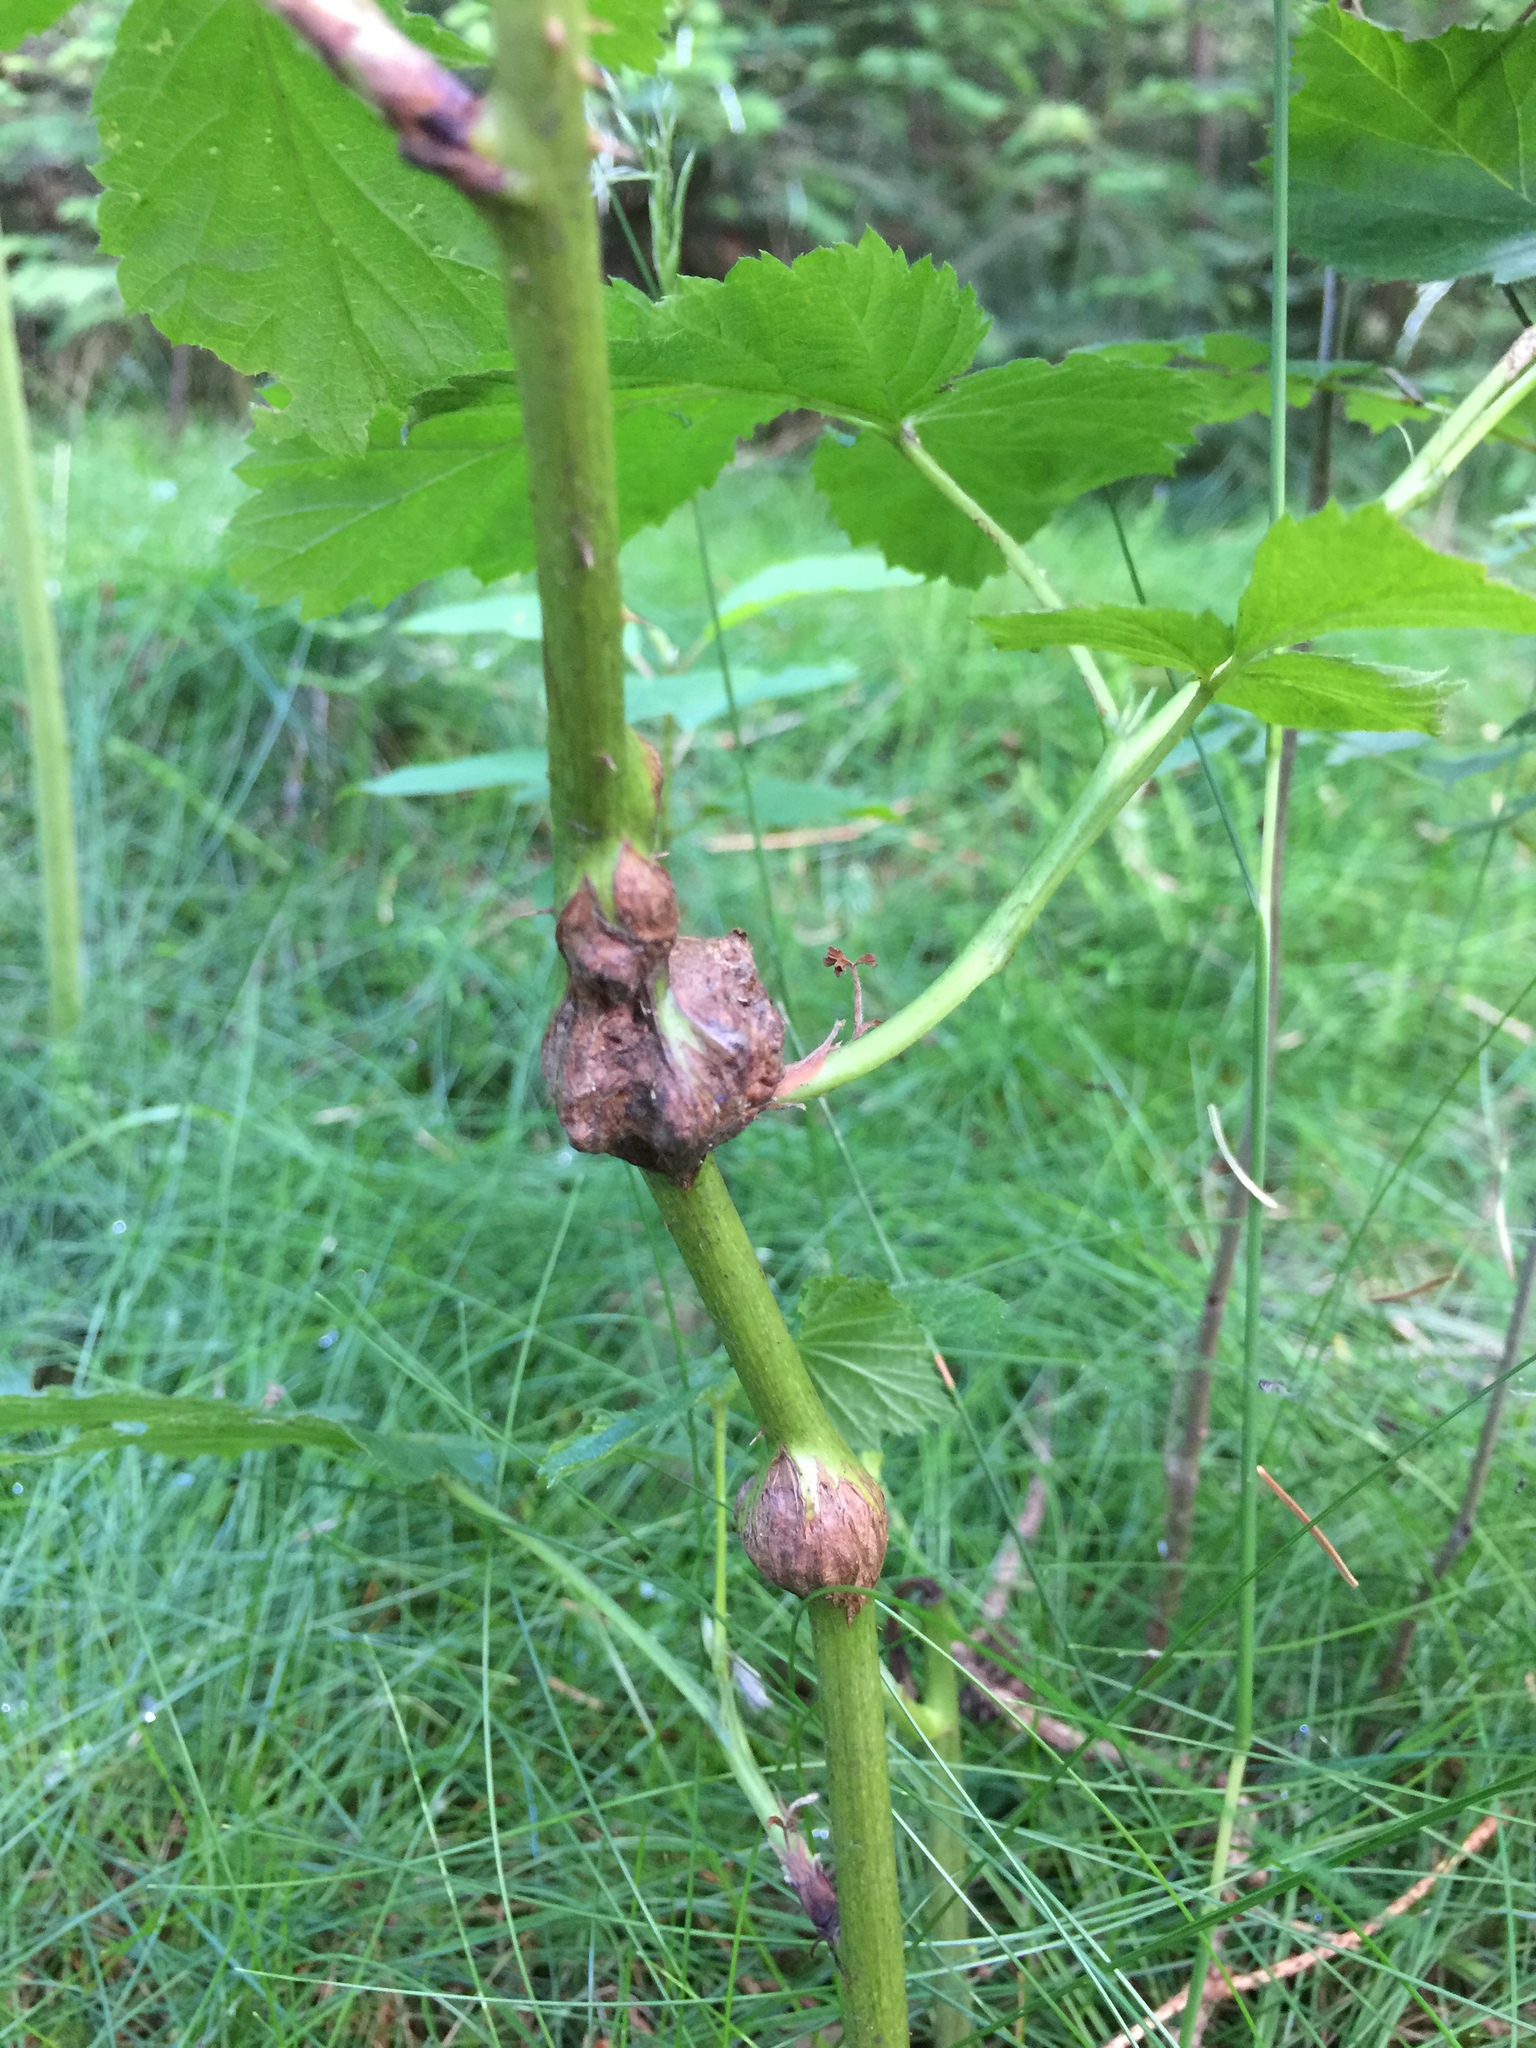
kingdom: Animalia
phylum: Arthropoda
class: Insecta
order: Diptera
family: Cecidomyiidae
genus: Lasioptera
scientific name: Lasioptera rubi
